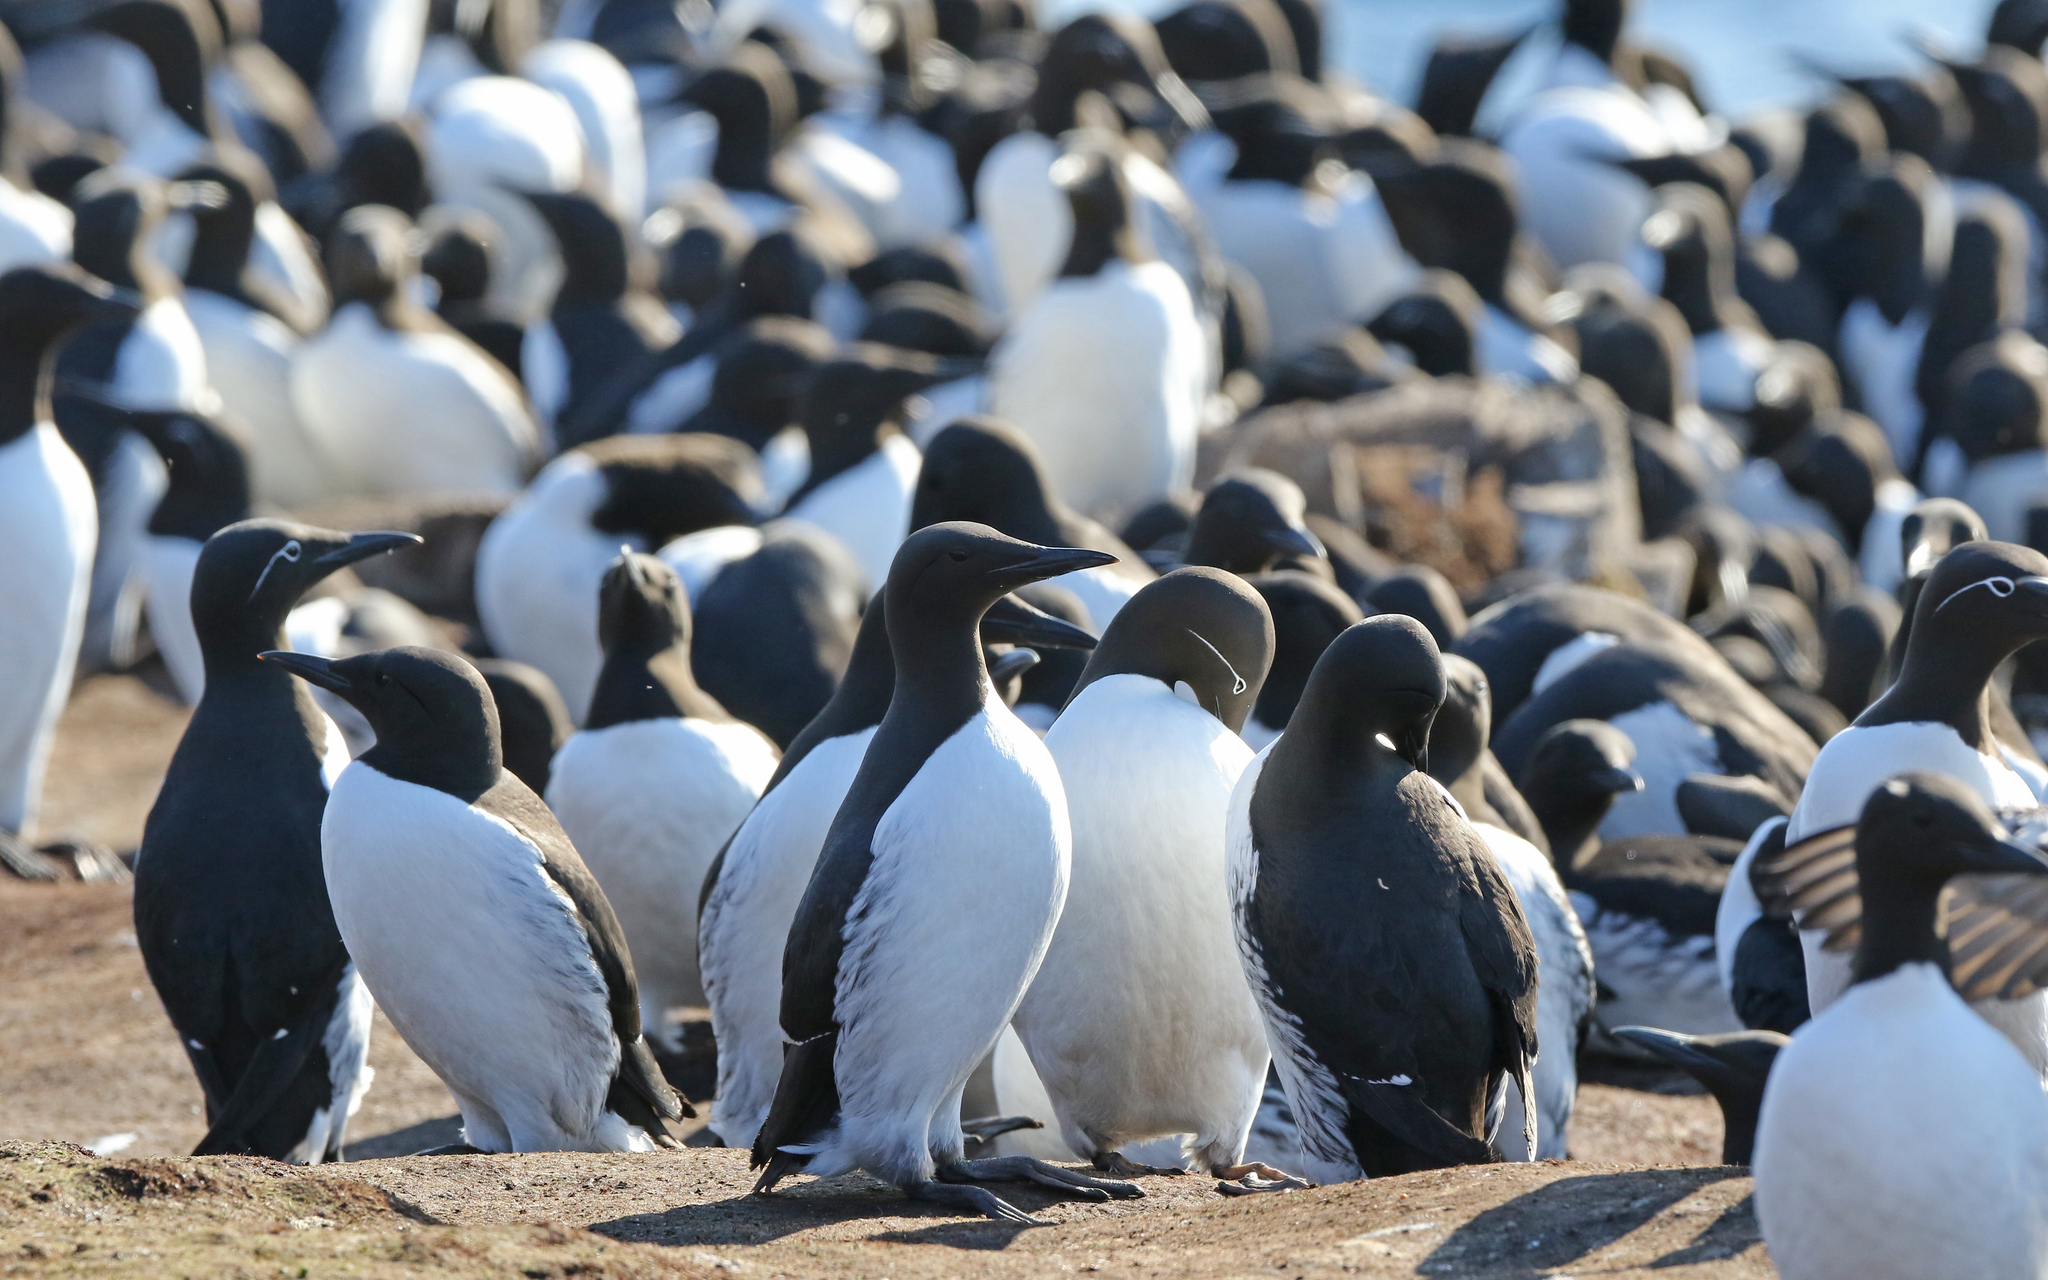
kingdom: Animalia
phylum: Chordata
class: Aves
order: Charadriiformes
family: Alcidae
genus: Uria
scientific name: Uria aalge
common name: Common murre
